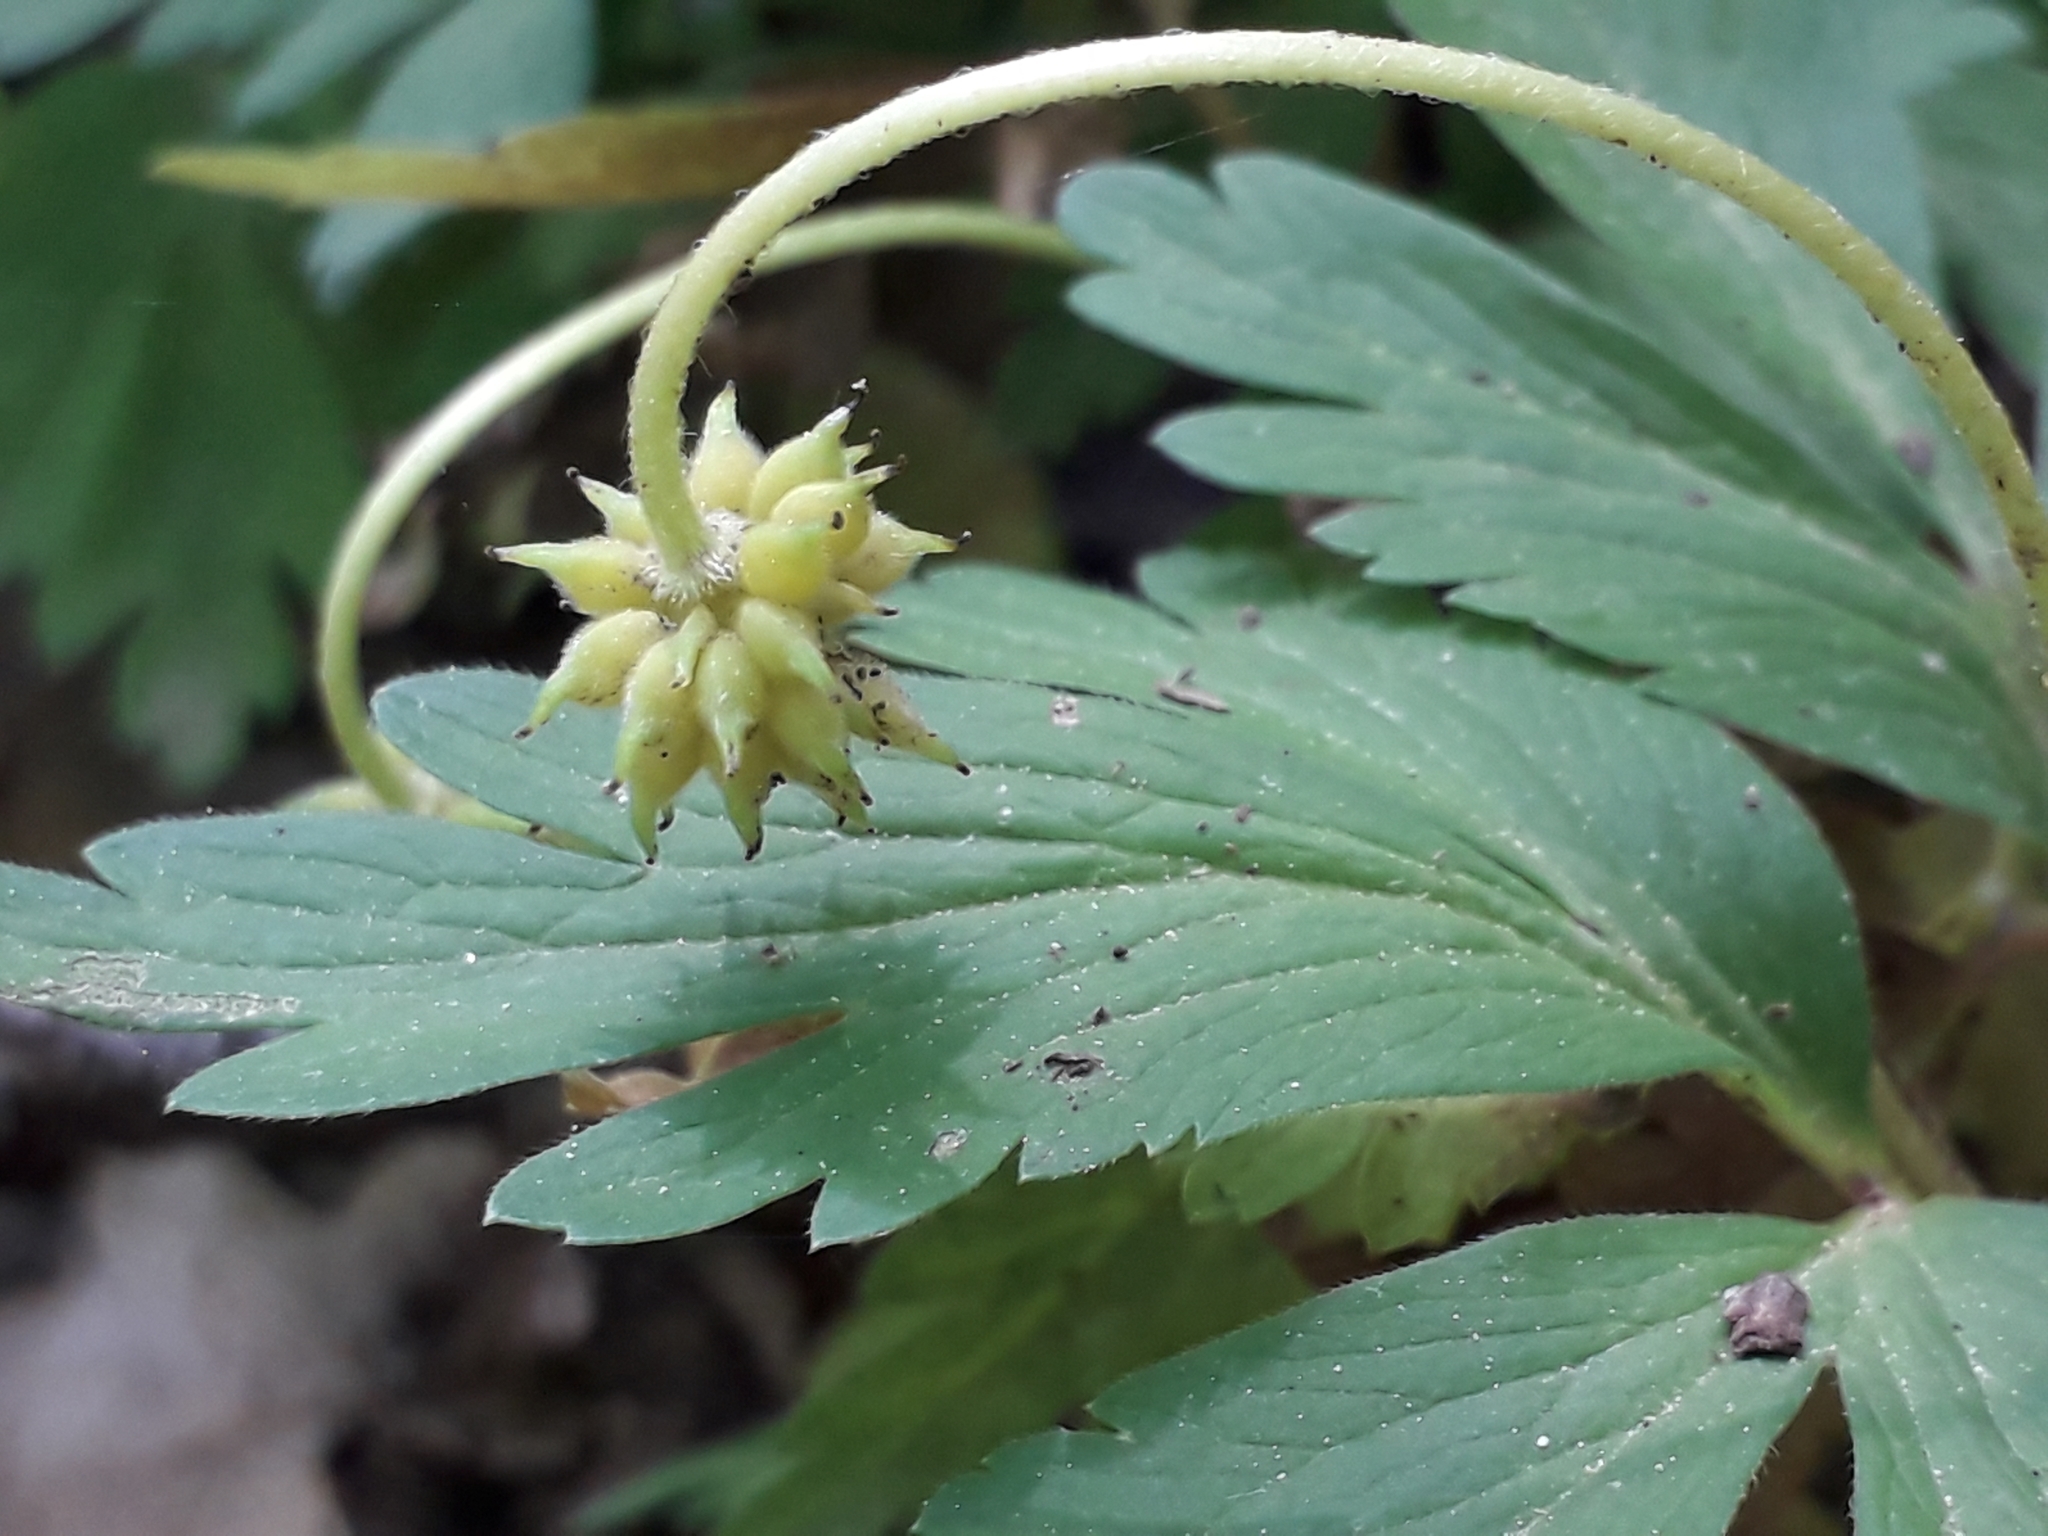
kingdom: Plantae
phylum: Tracheophyta
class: Magnoliopsida
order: Ranunculales
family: Ranunculaceae
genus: Anemone
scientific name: Anemone nemorosa
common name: Wood anemone
